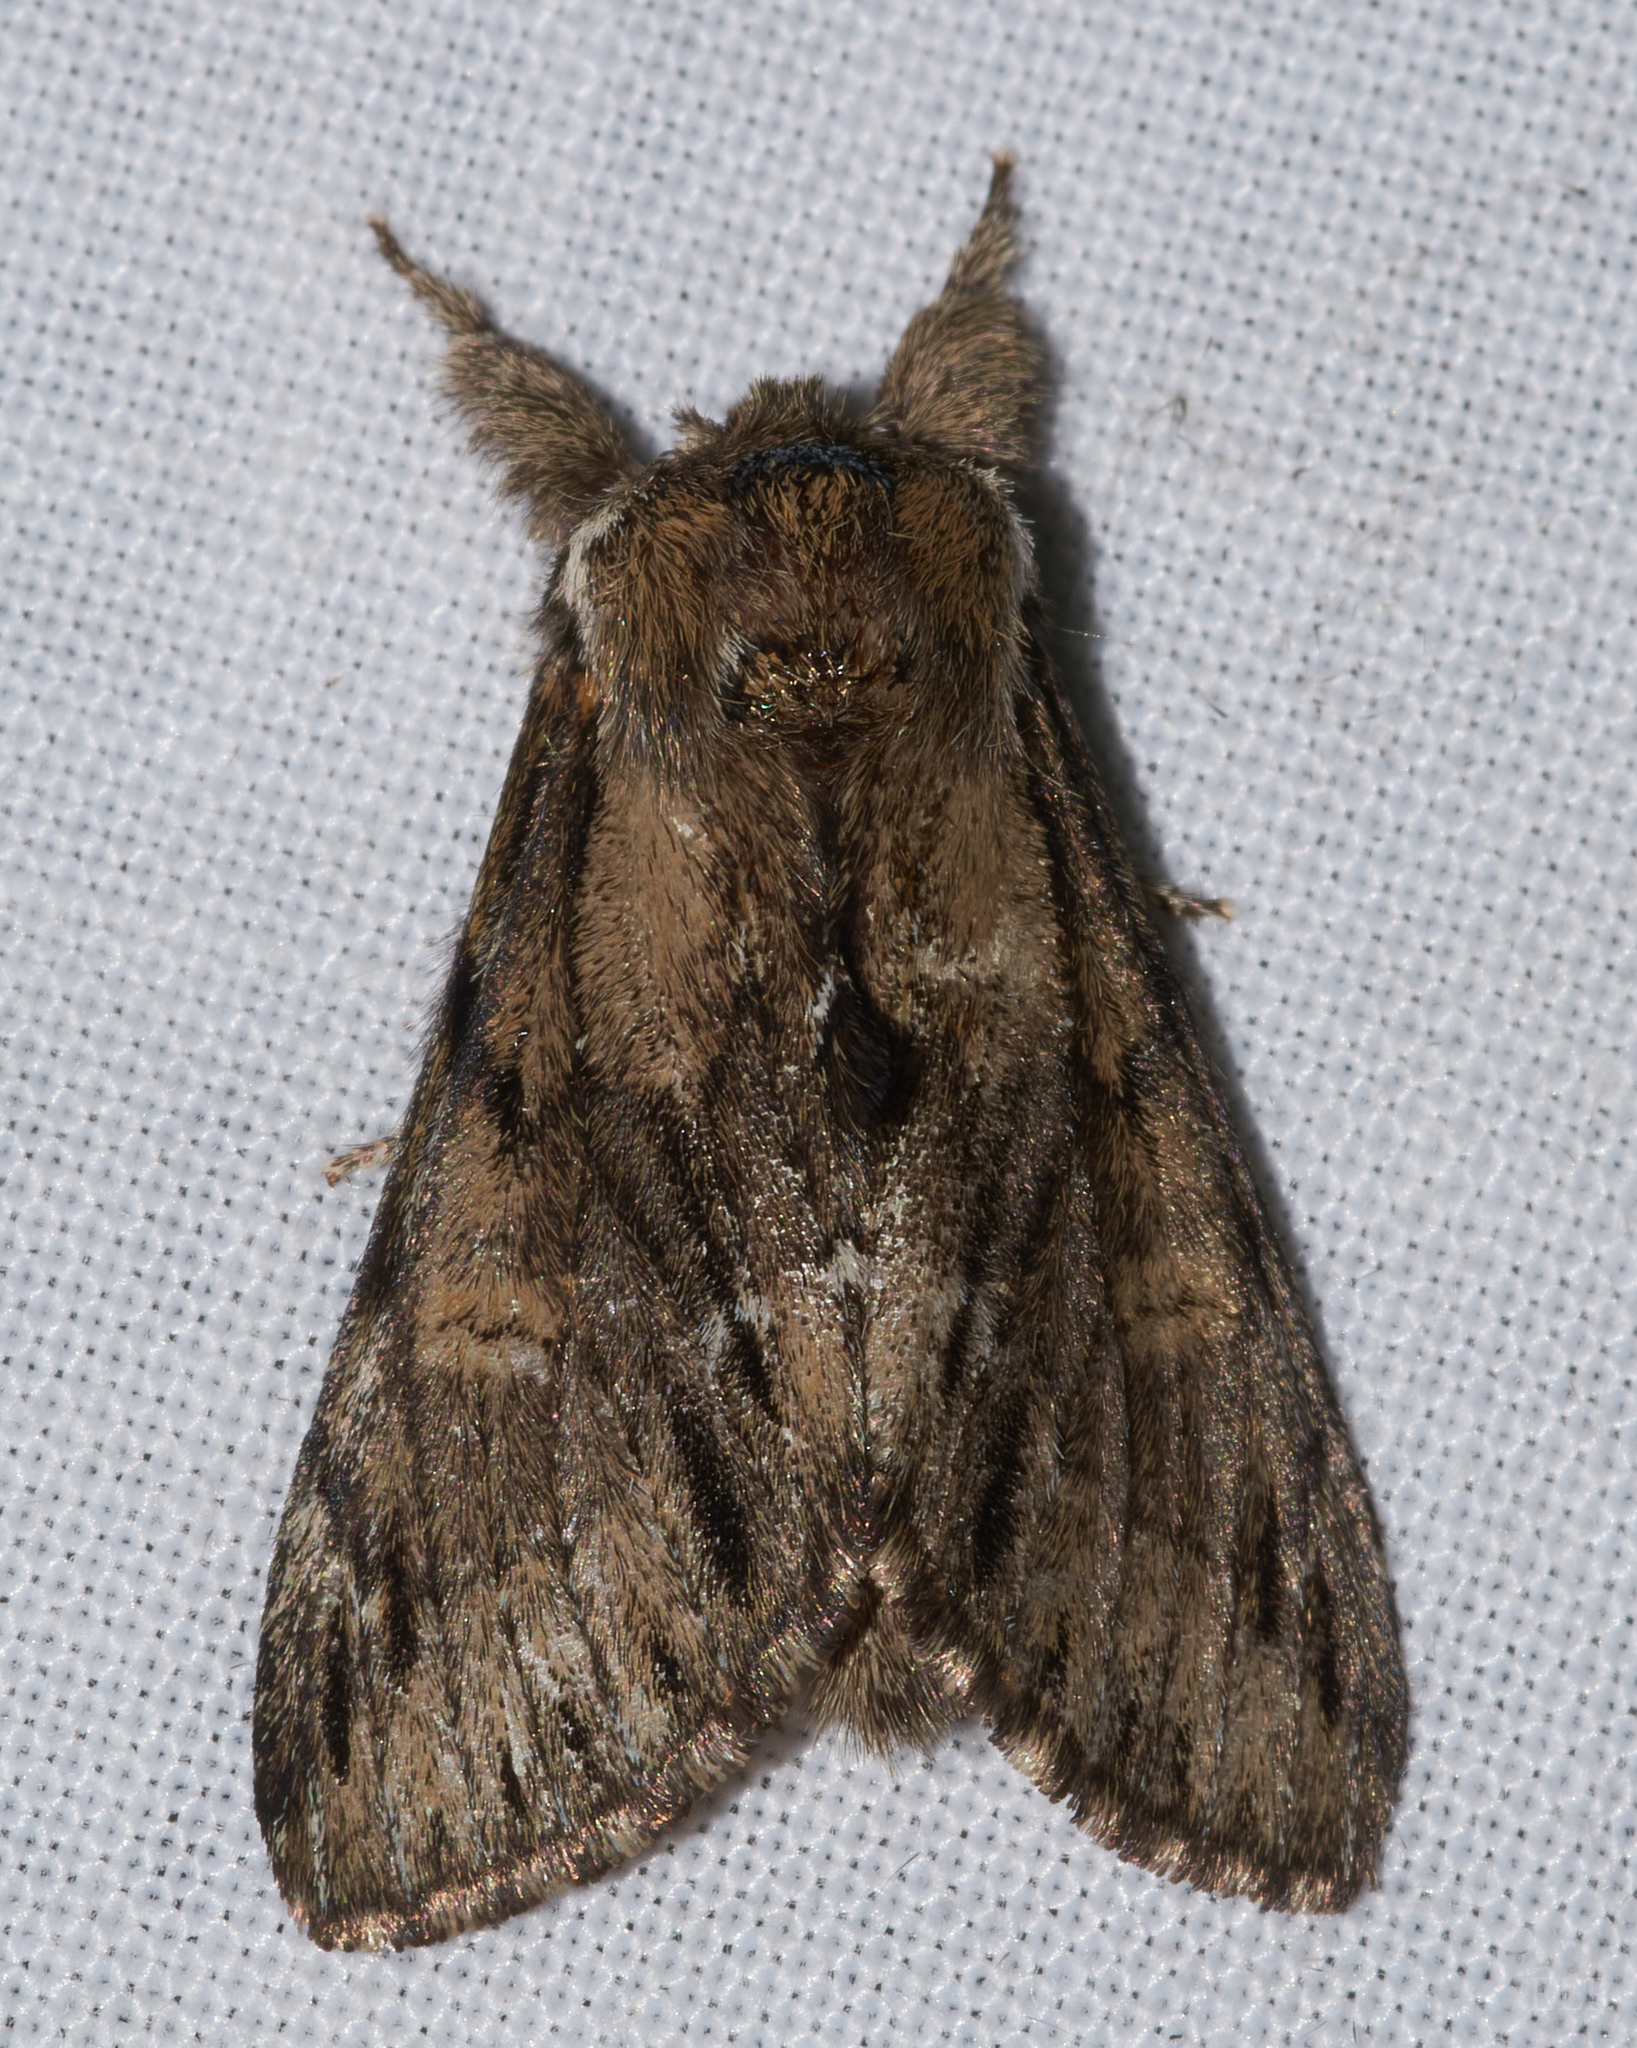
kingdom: Animalia
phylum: Arthropoda
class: Insecta
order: Lepidoptera
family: Notodontidae
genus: Paraeschra
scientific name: Paraeschra georgica
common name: Georgian prominent
